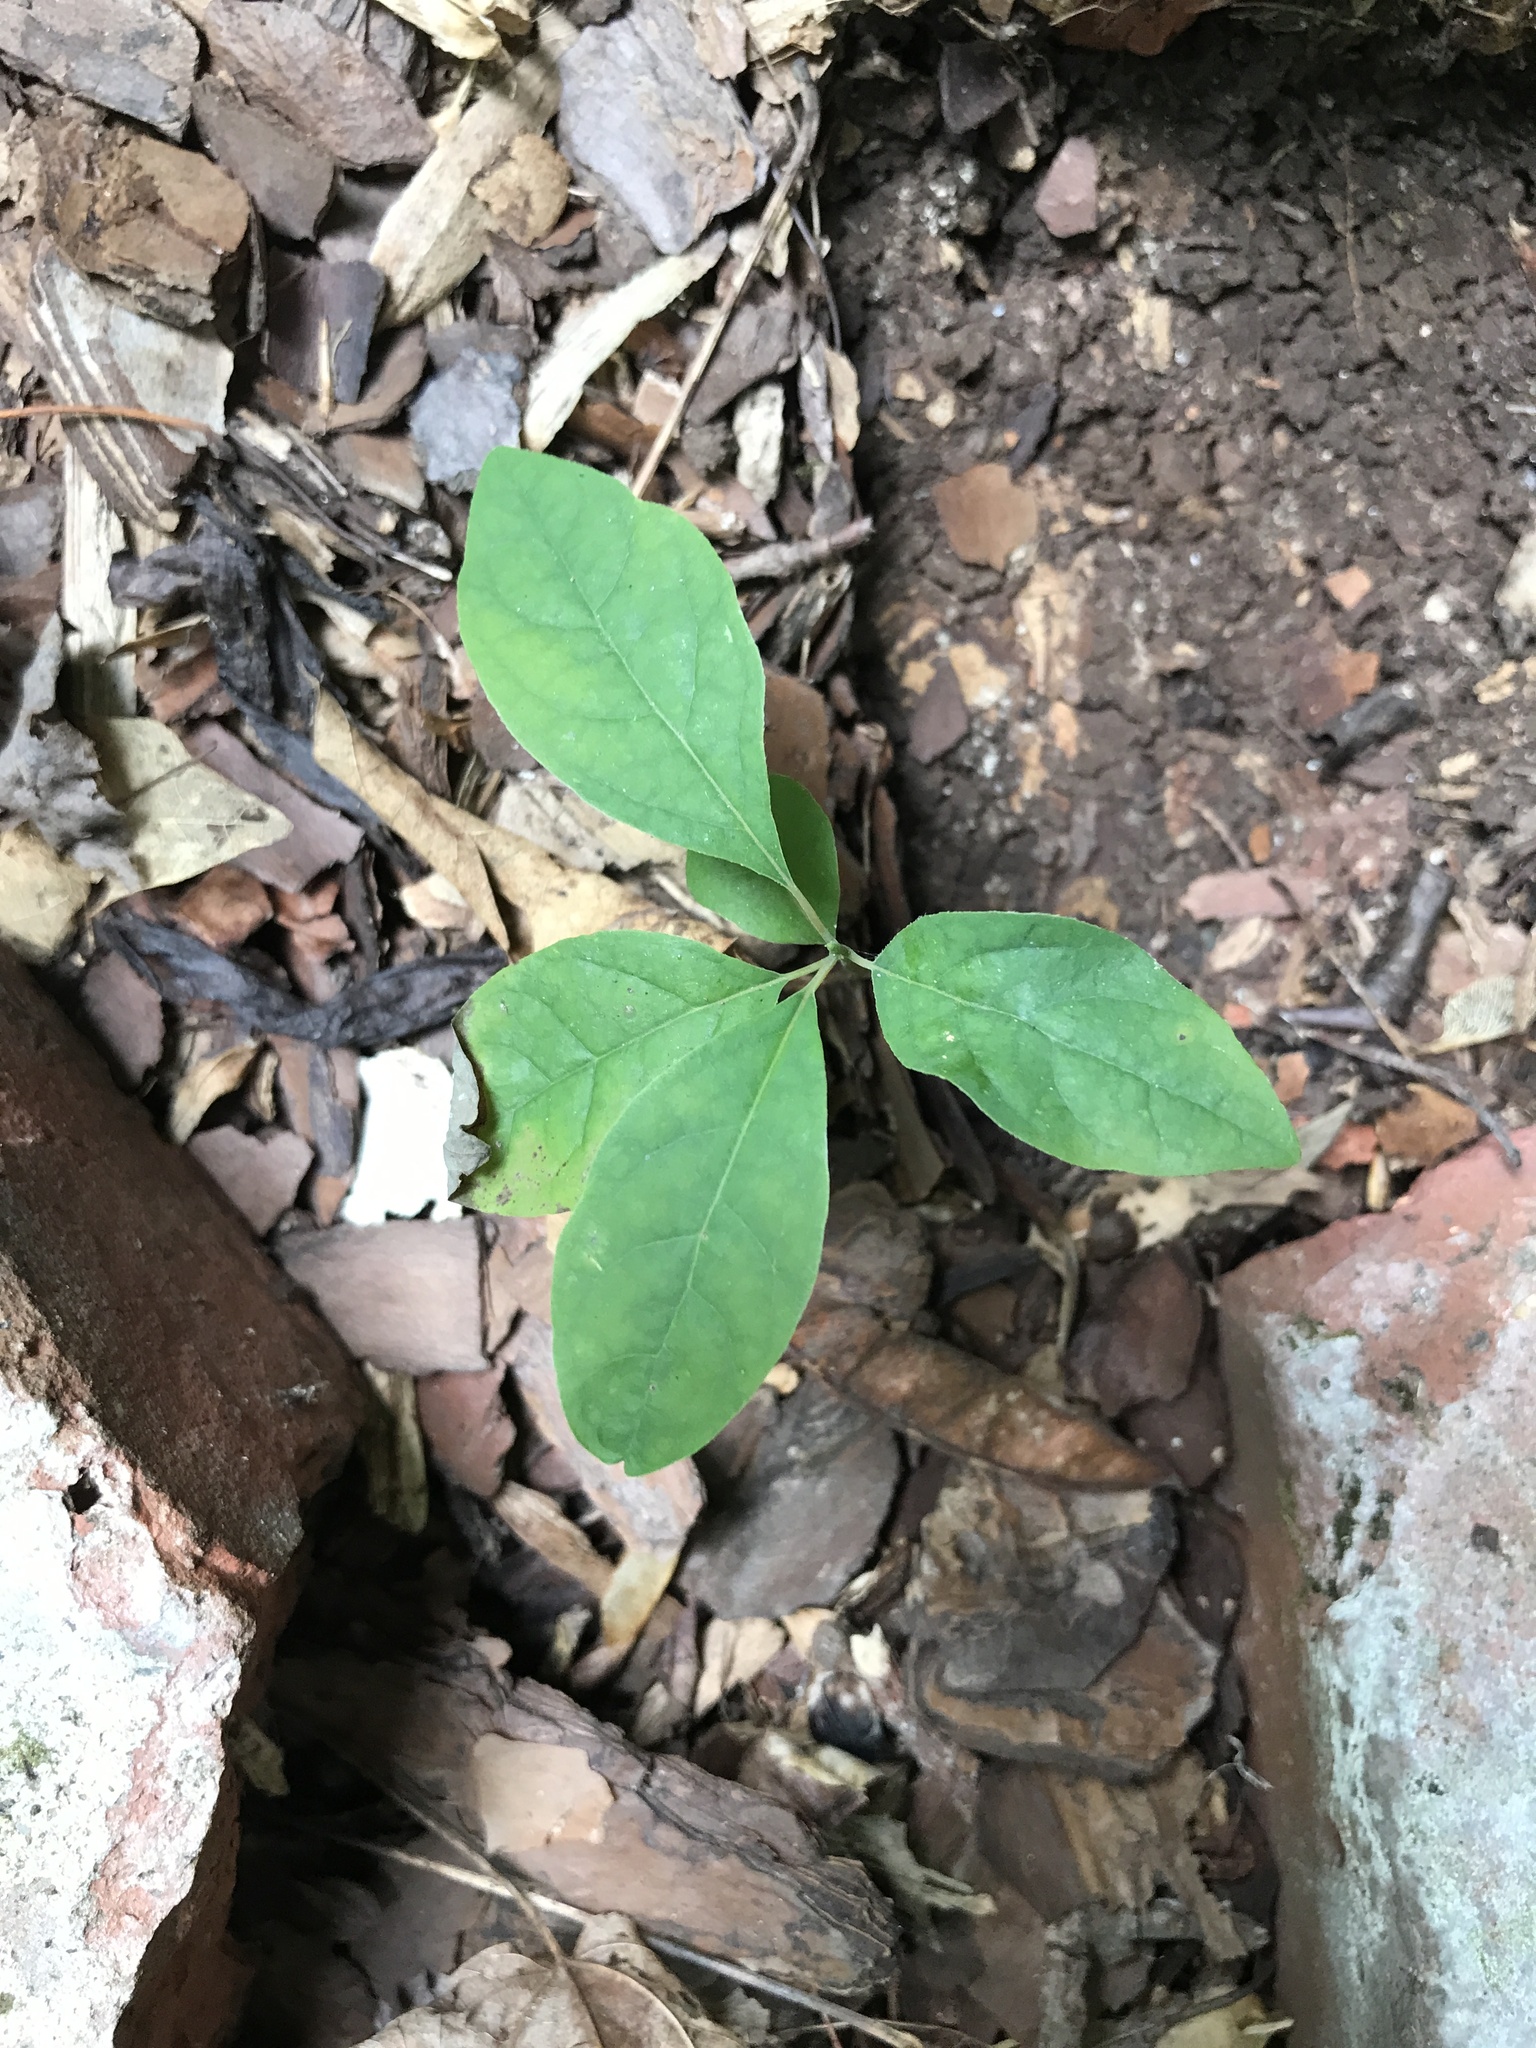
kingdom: Plantae
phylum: Tracheophyta
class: Magnoliopsida
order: Laurales
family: Lauraceae
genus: Sassafras
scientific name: Sassafras albidum
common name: Sassafras
